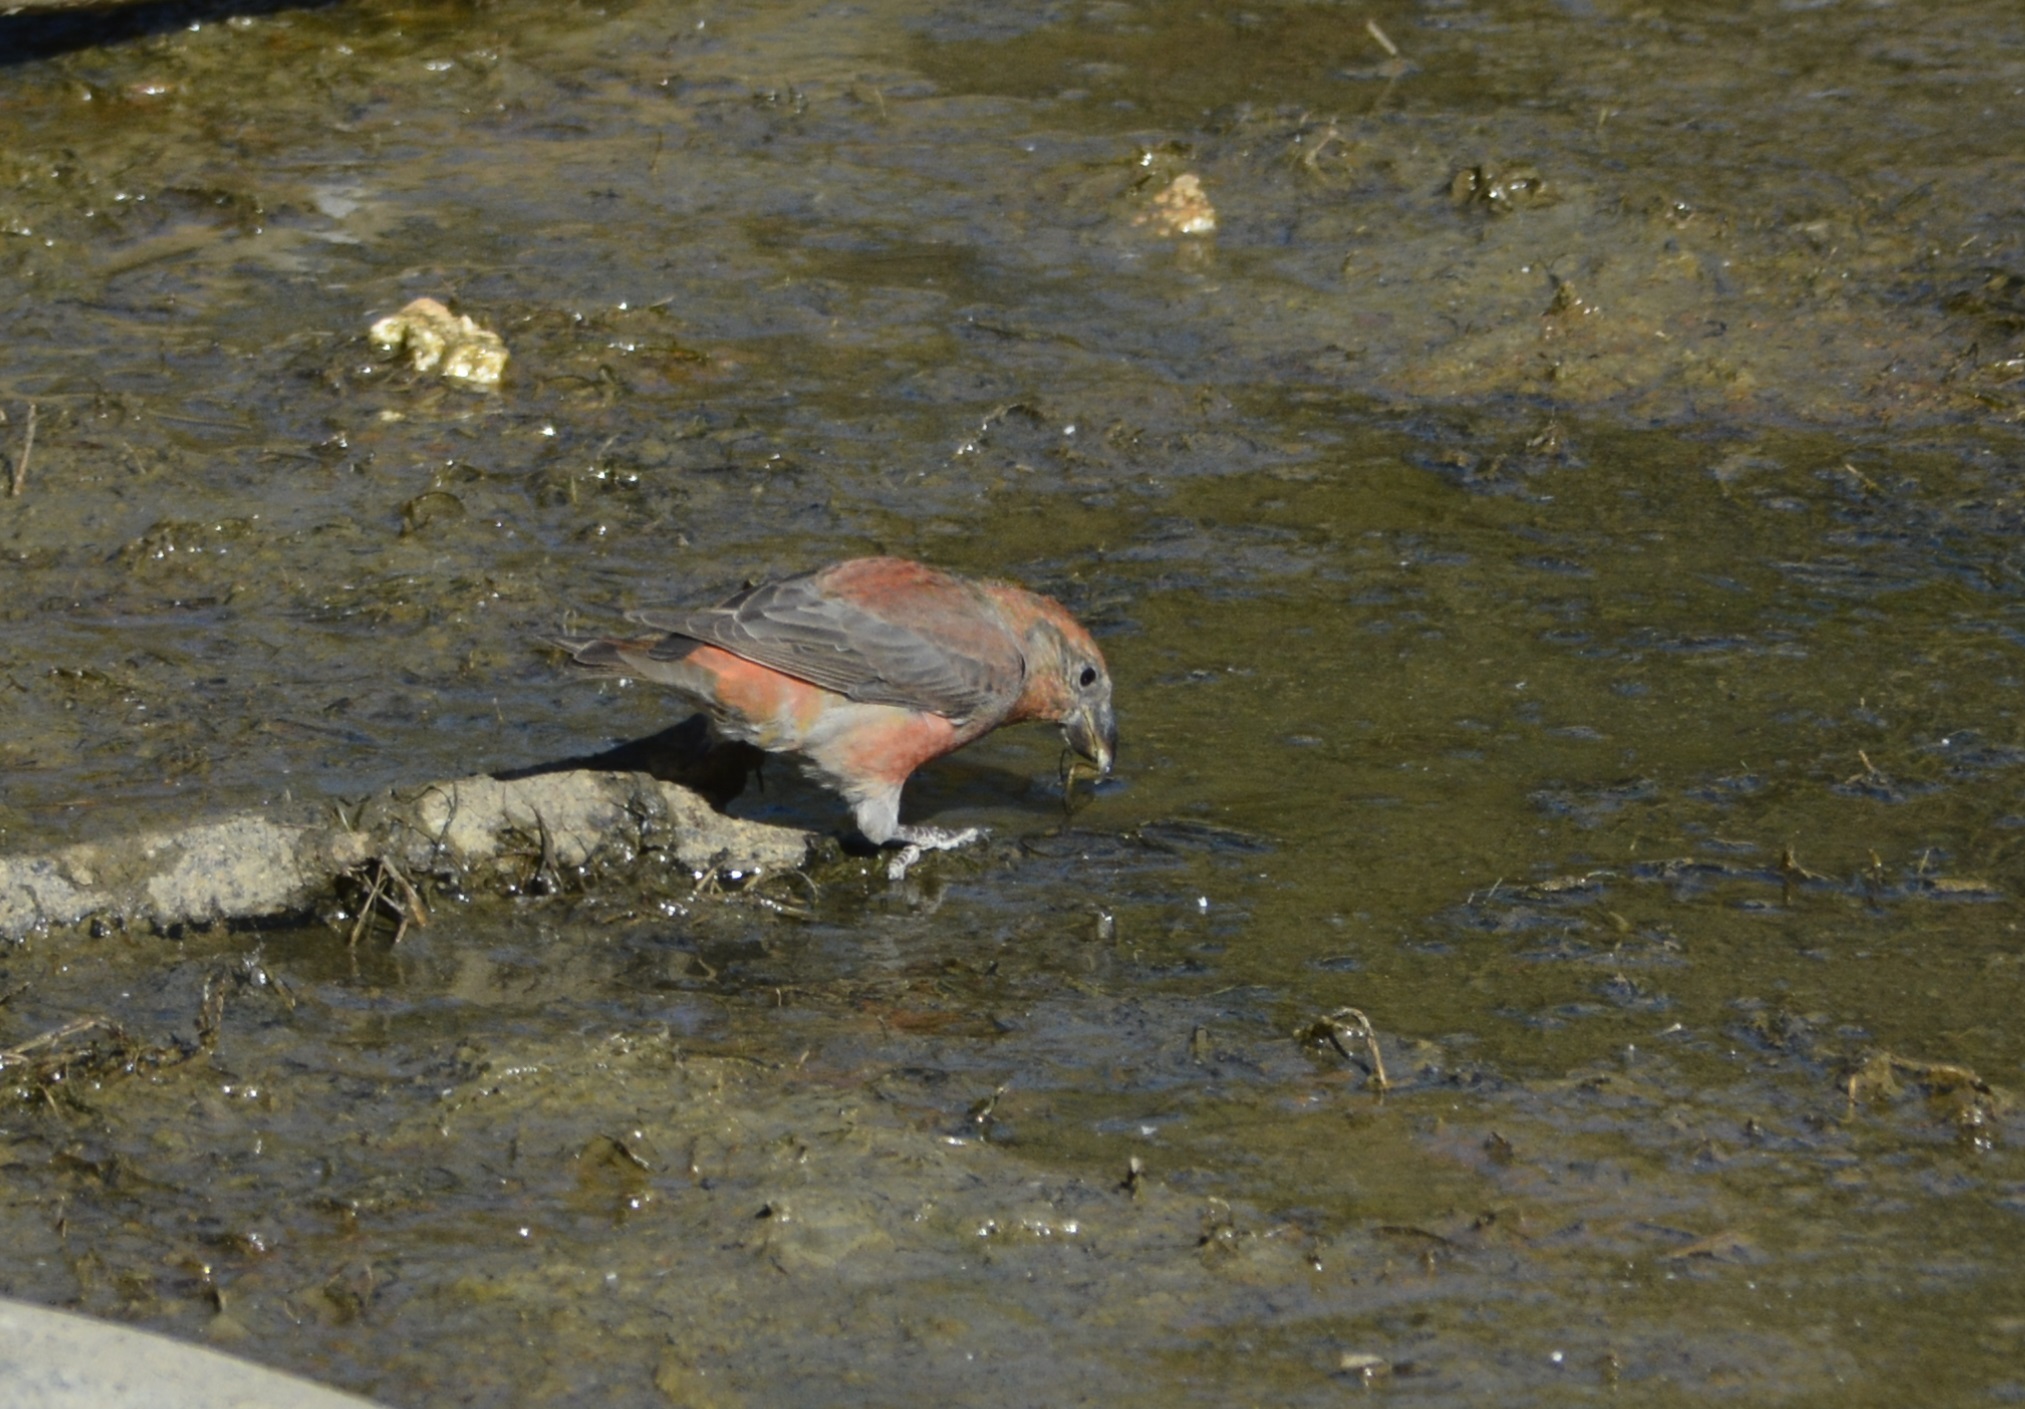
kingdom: Animalia
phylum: Chordata
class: Aves
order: Passeriformes
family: Fringillidae
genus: Loxia
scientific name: Loxia curvirostra
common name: Red crossbill
